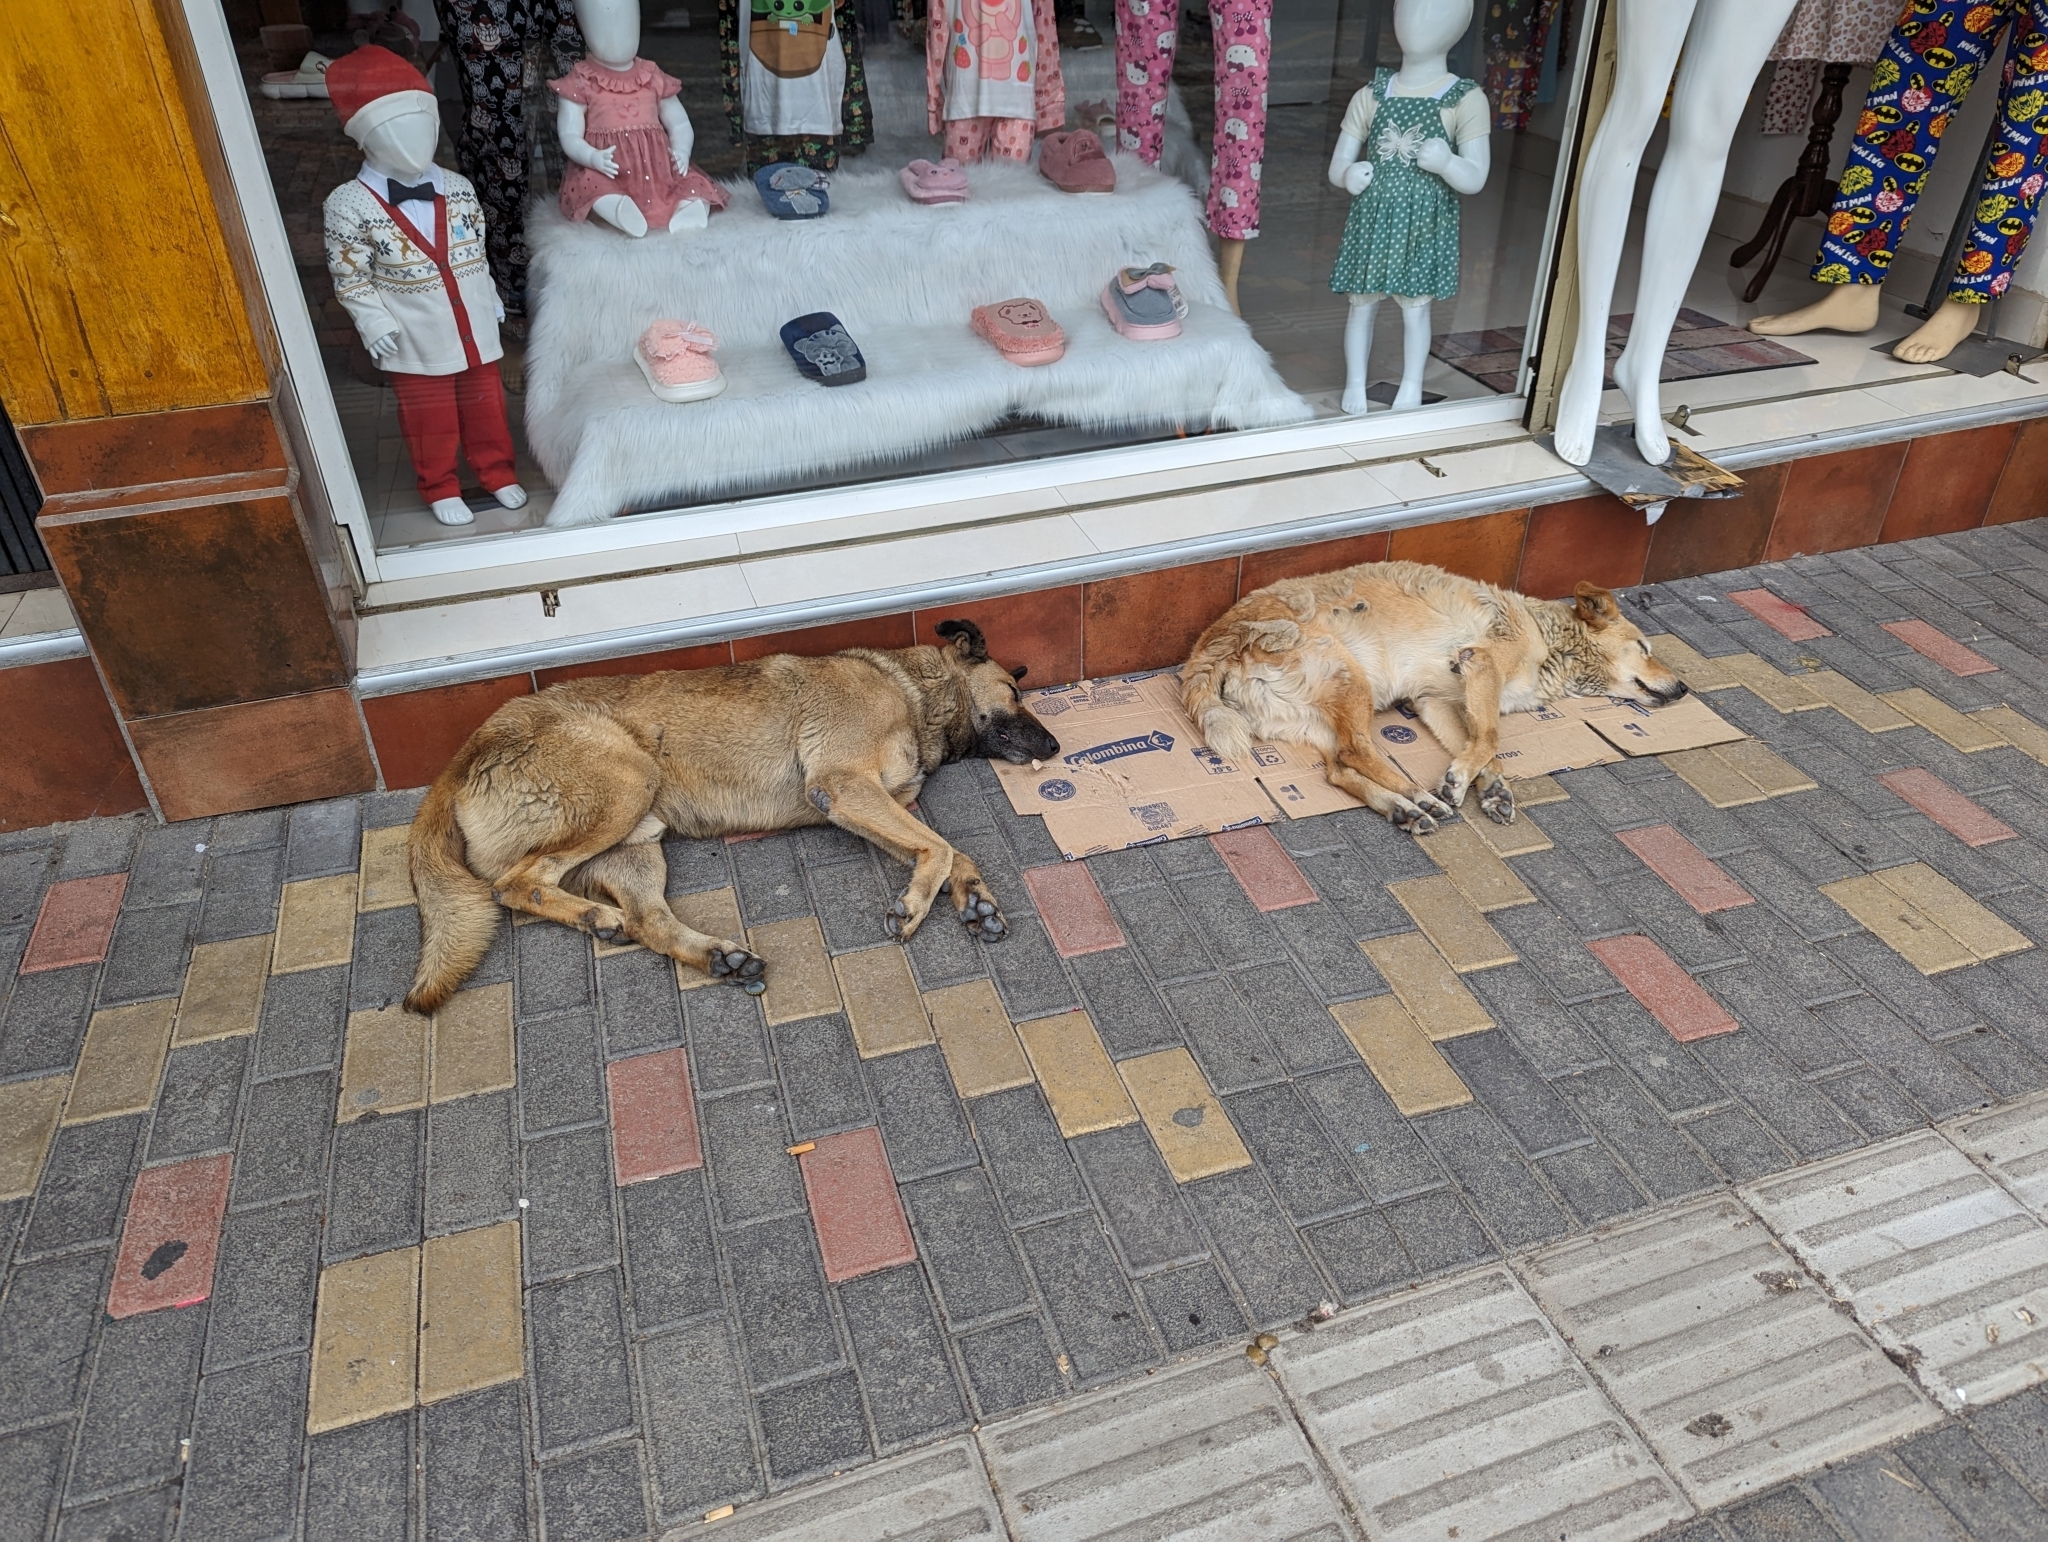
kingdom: Animalia
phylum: Chordata
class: Mammalia
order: Carnivora
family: Canidae
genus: Canis
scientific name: Canis lupus
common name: Gray wolf
